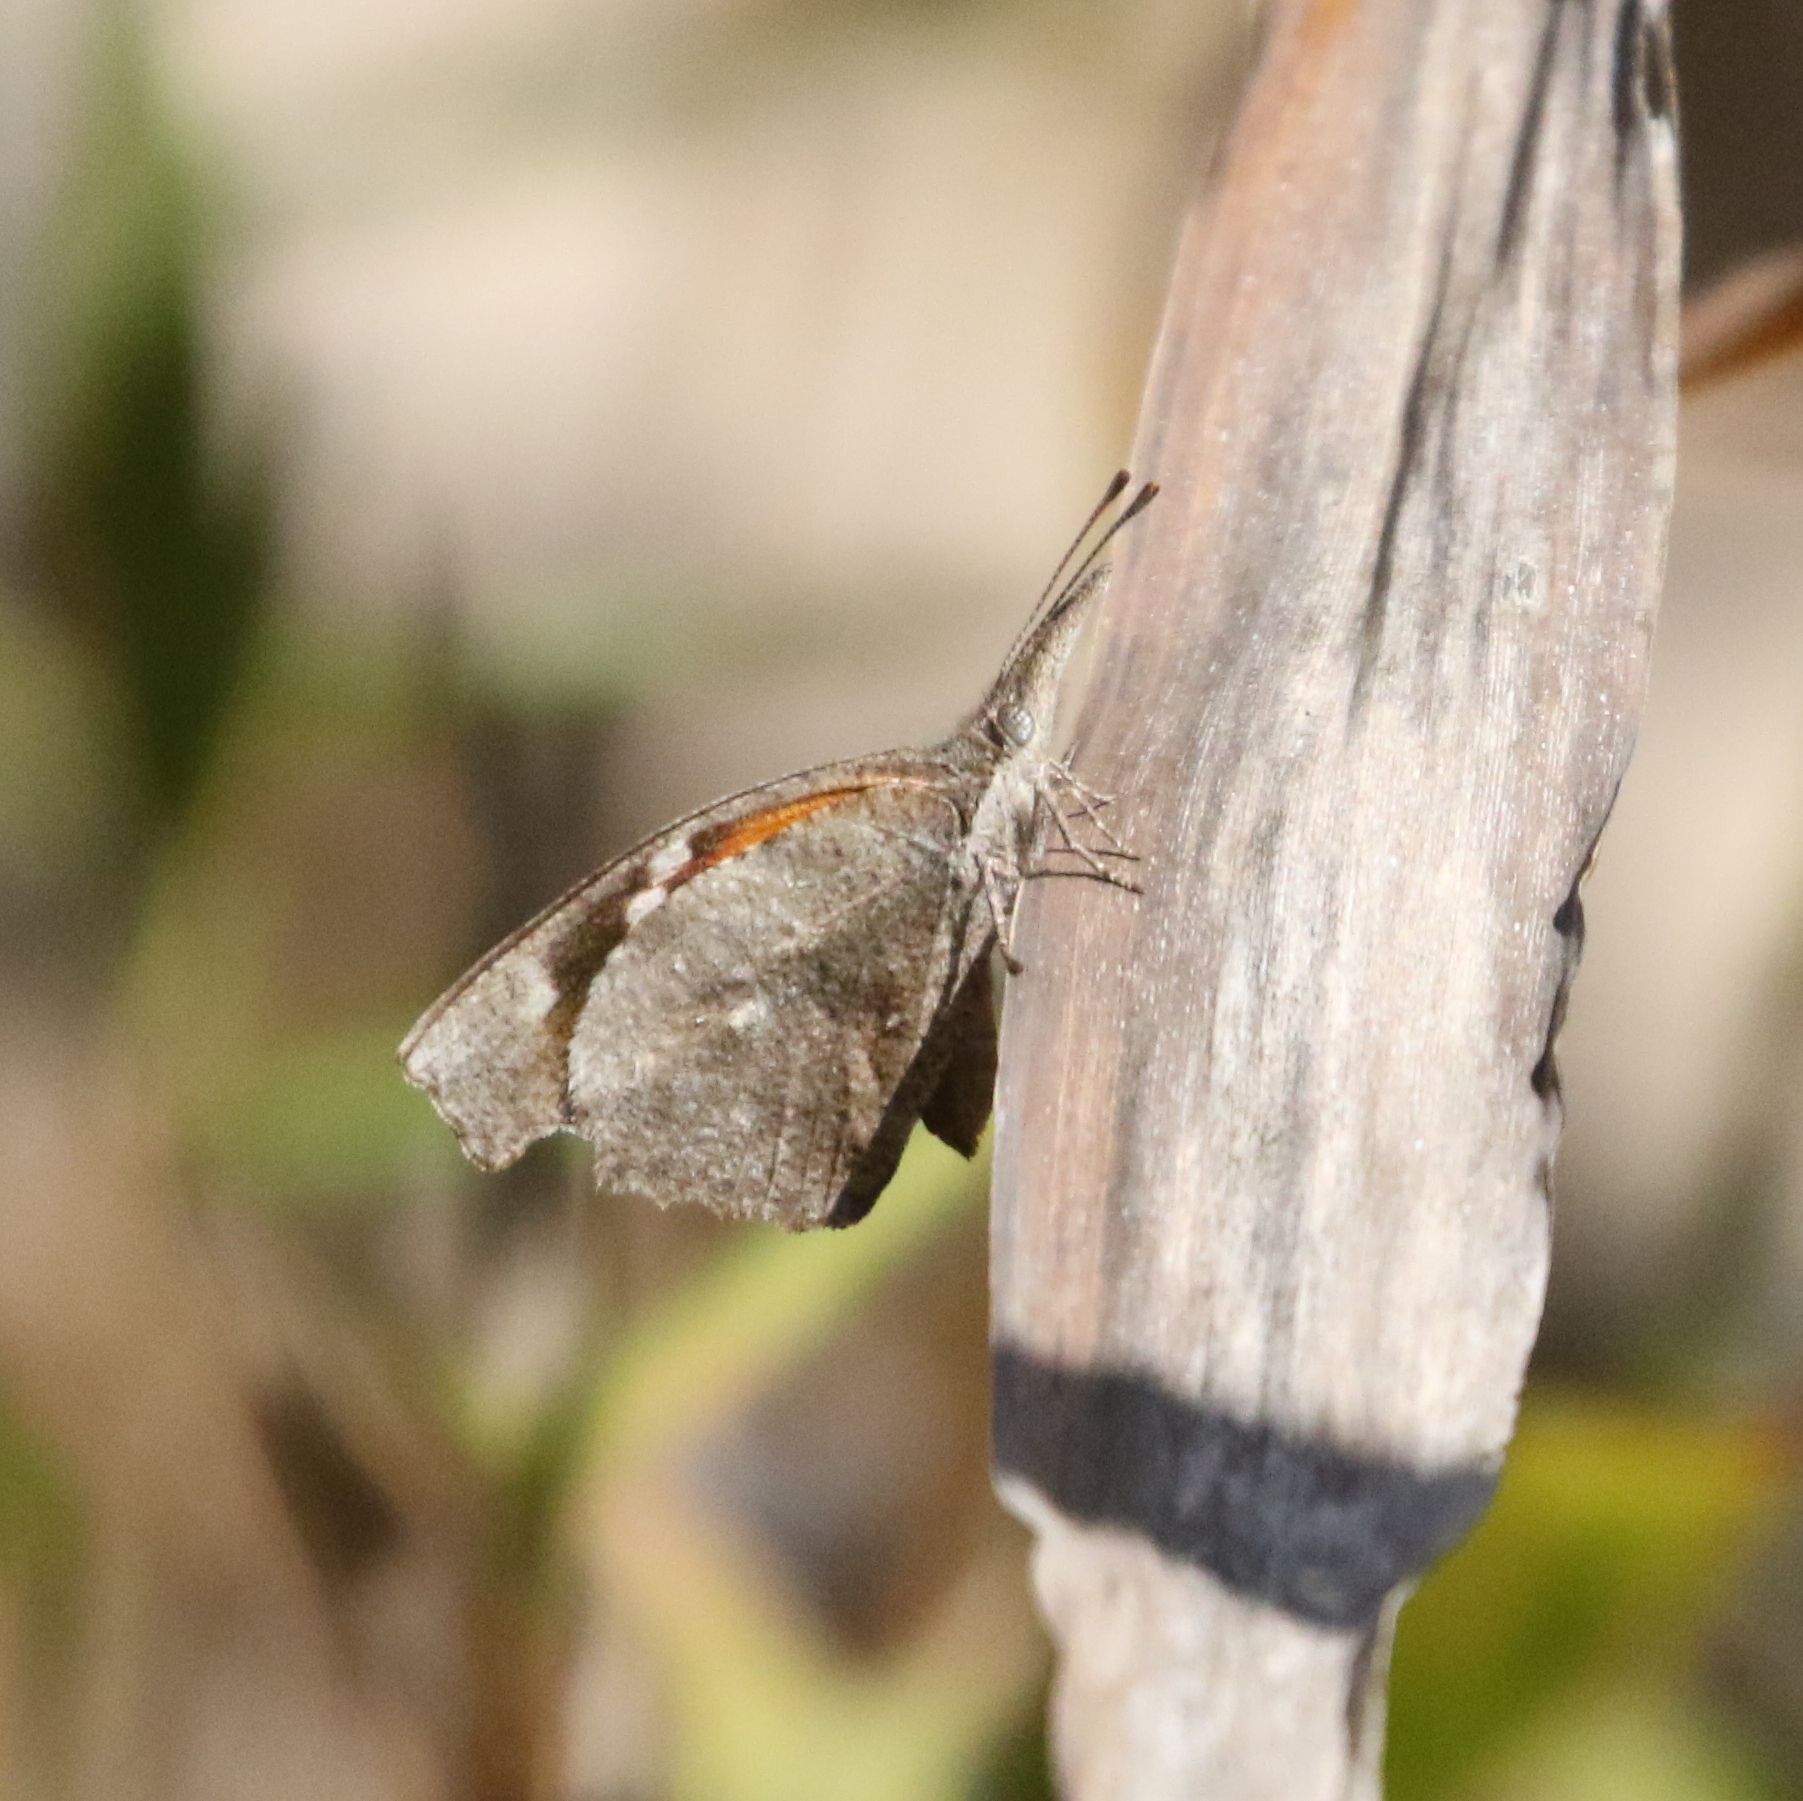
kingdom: Animalia
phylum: Arthropoda
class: Insecta
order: Lepidoptera
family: Nymphalidae
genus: Libytheana
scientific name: Libytheana carinenta
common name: American snout
